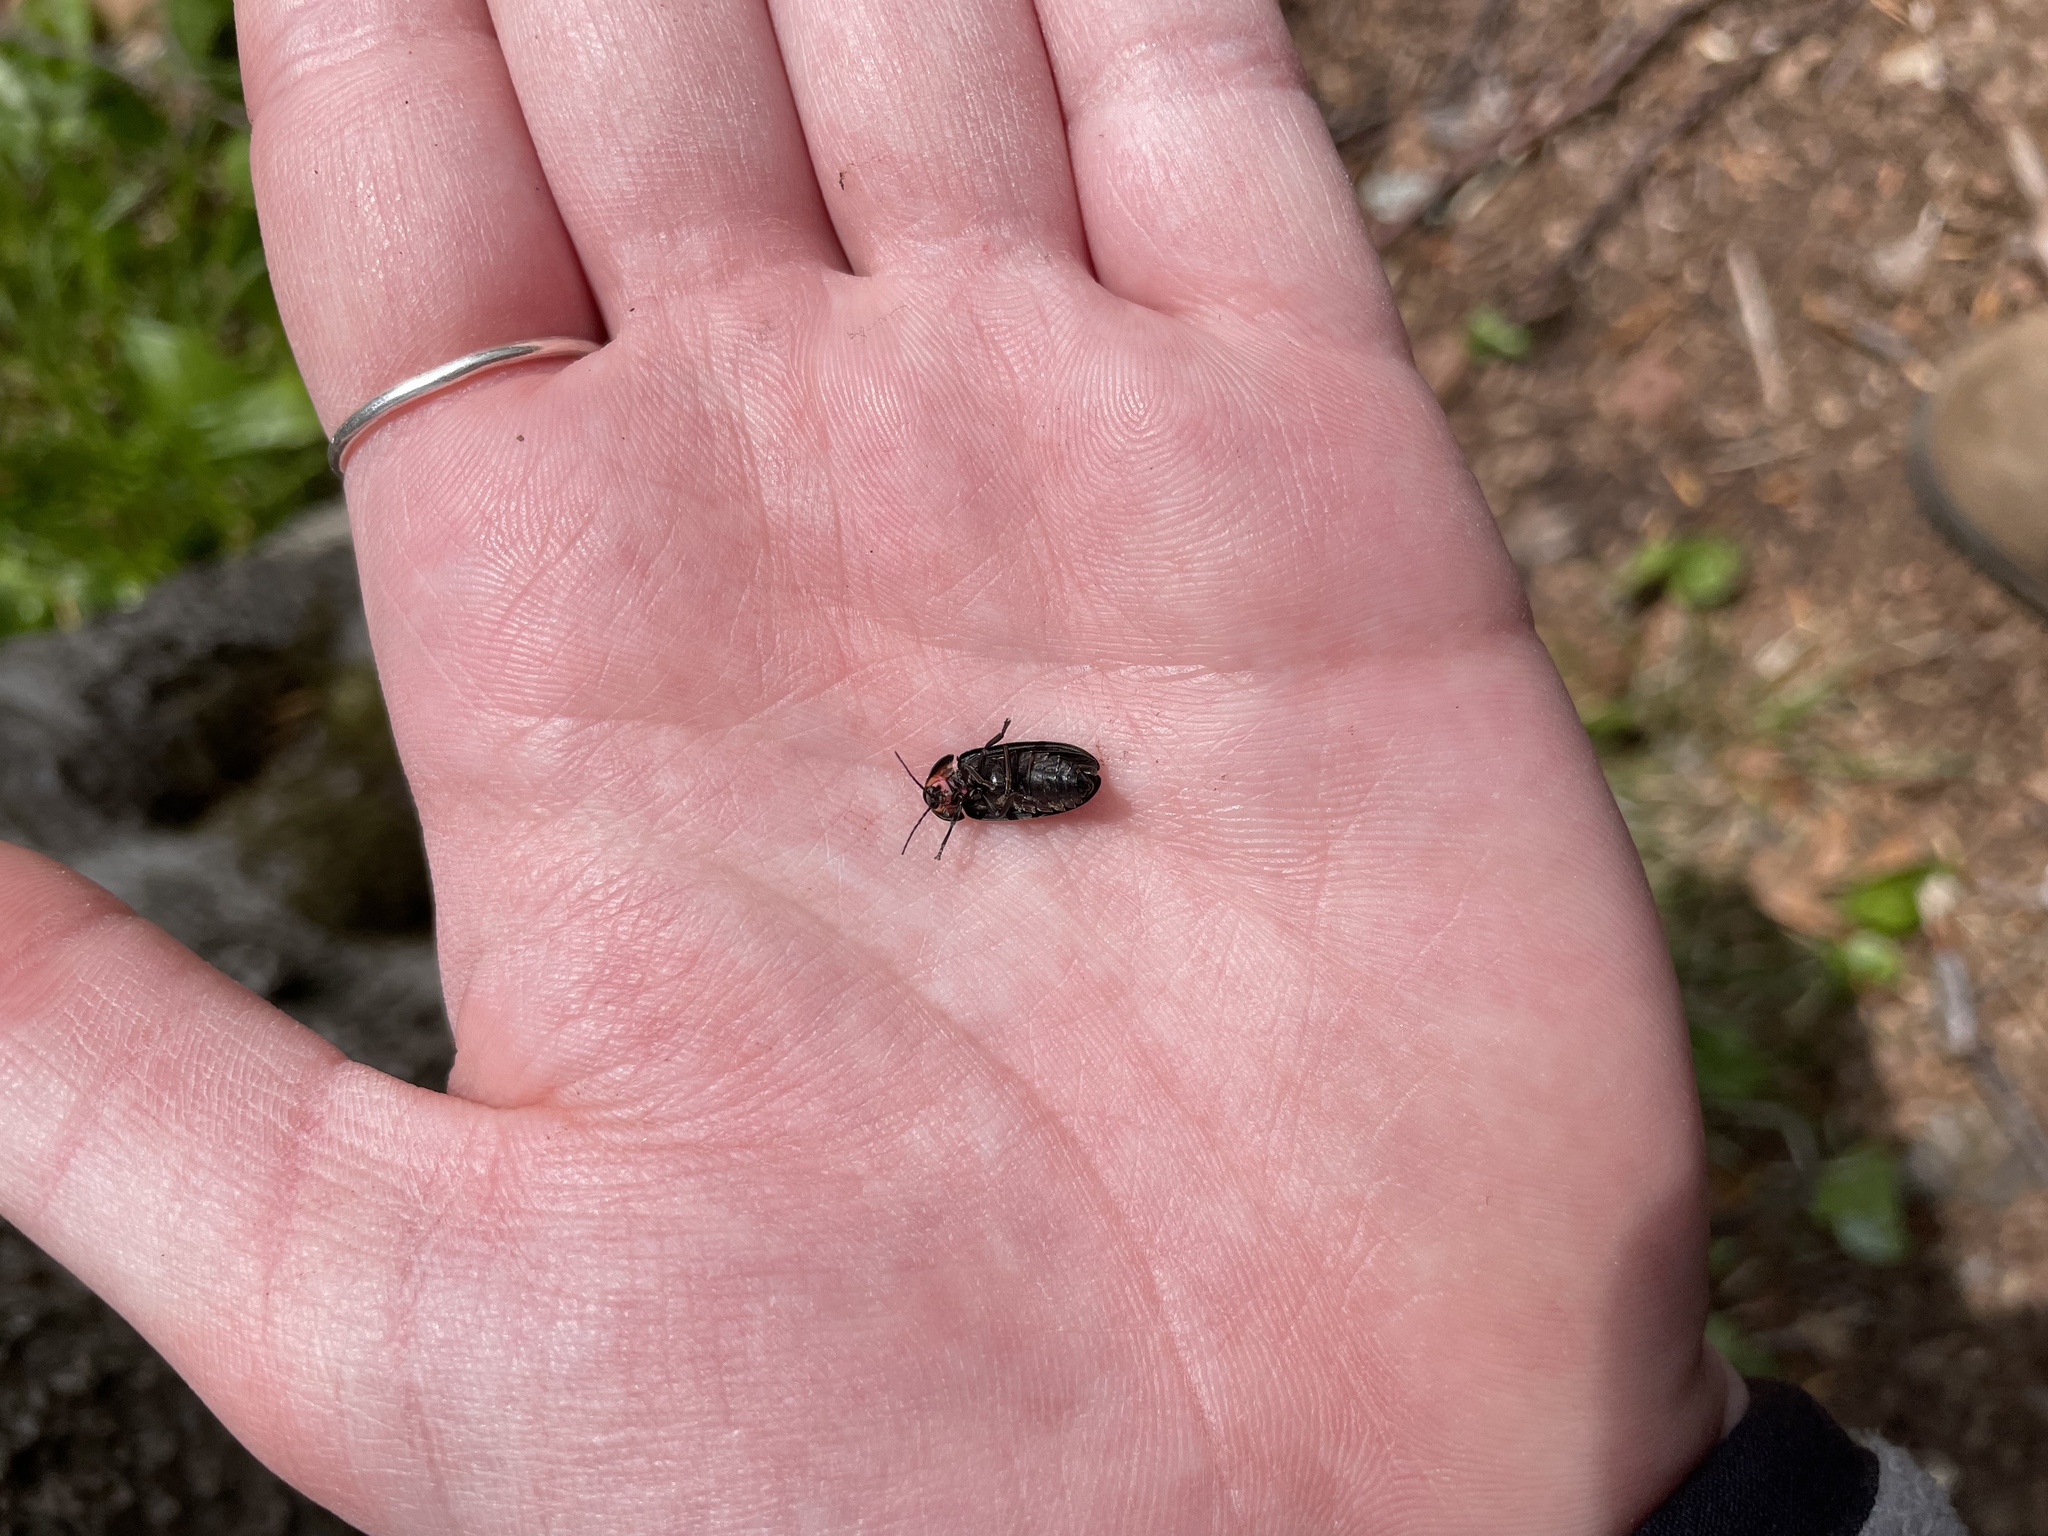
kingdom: Animalia
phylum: Arthropoda
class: Insecta
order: Coleoptera
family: Lampyridae
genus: Photinus
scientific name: Photinus corrusca
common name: Winter firefly
